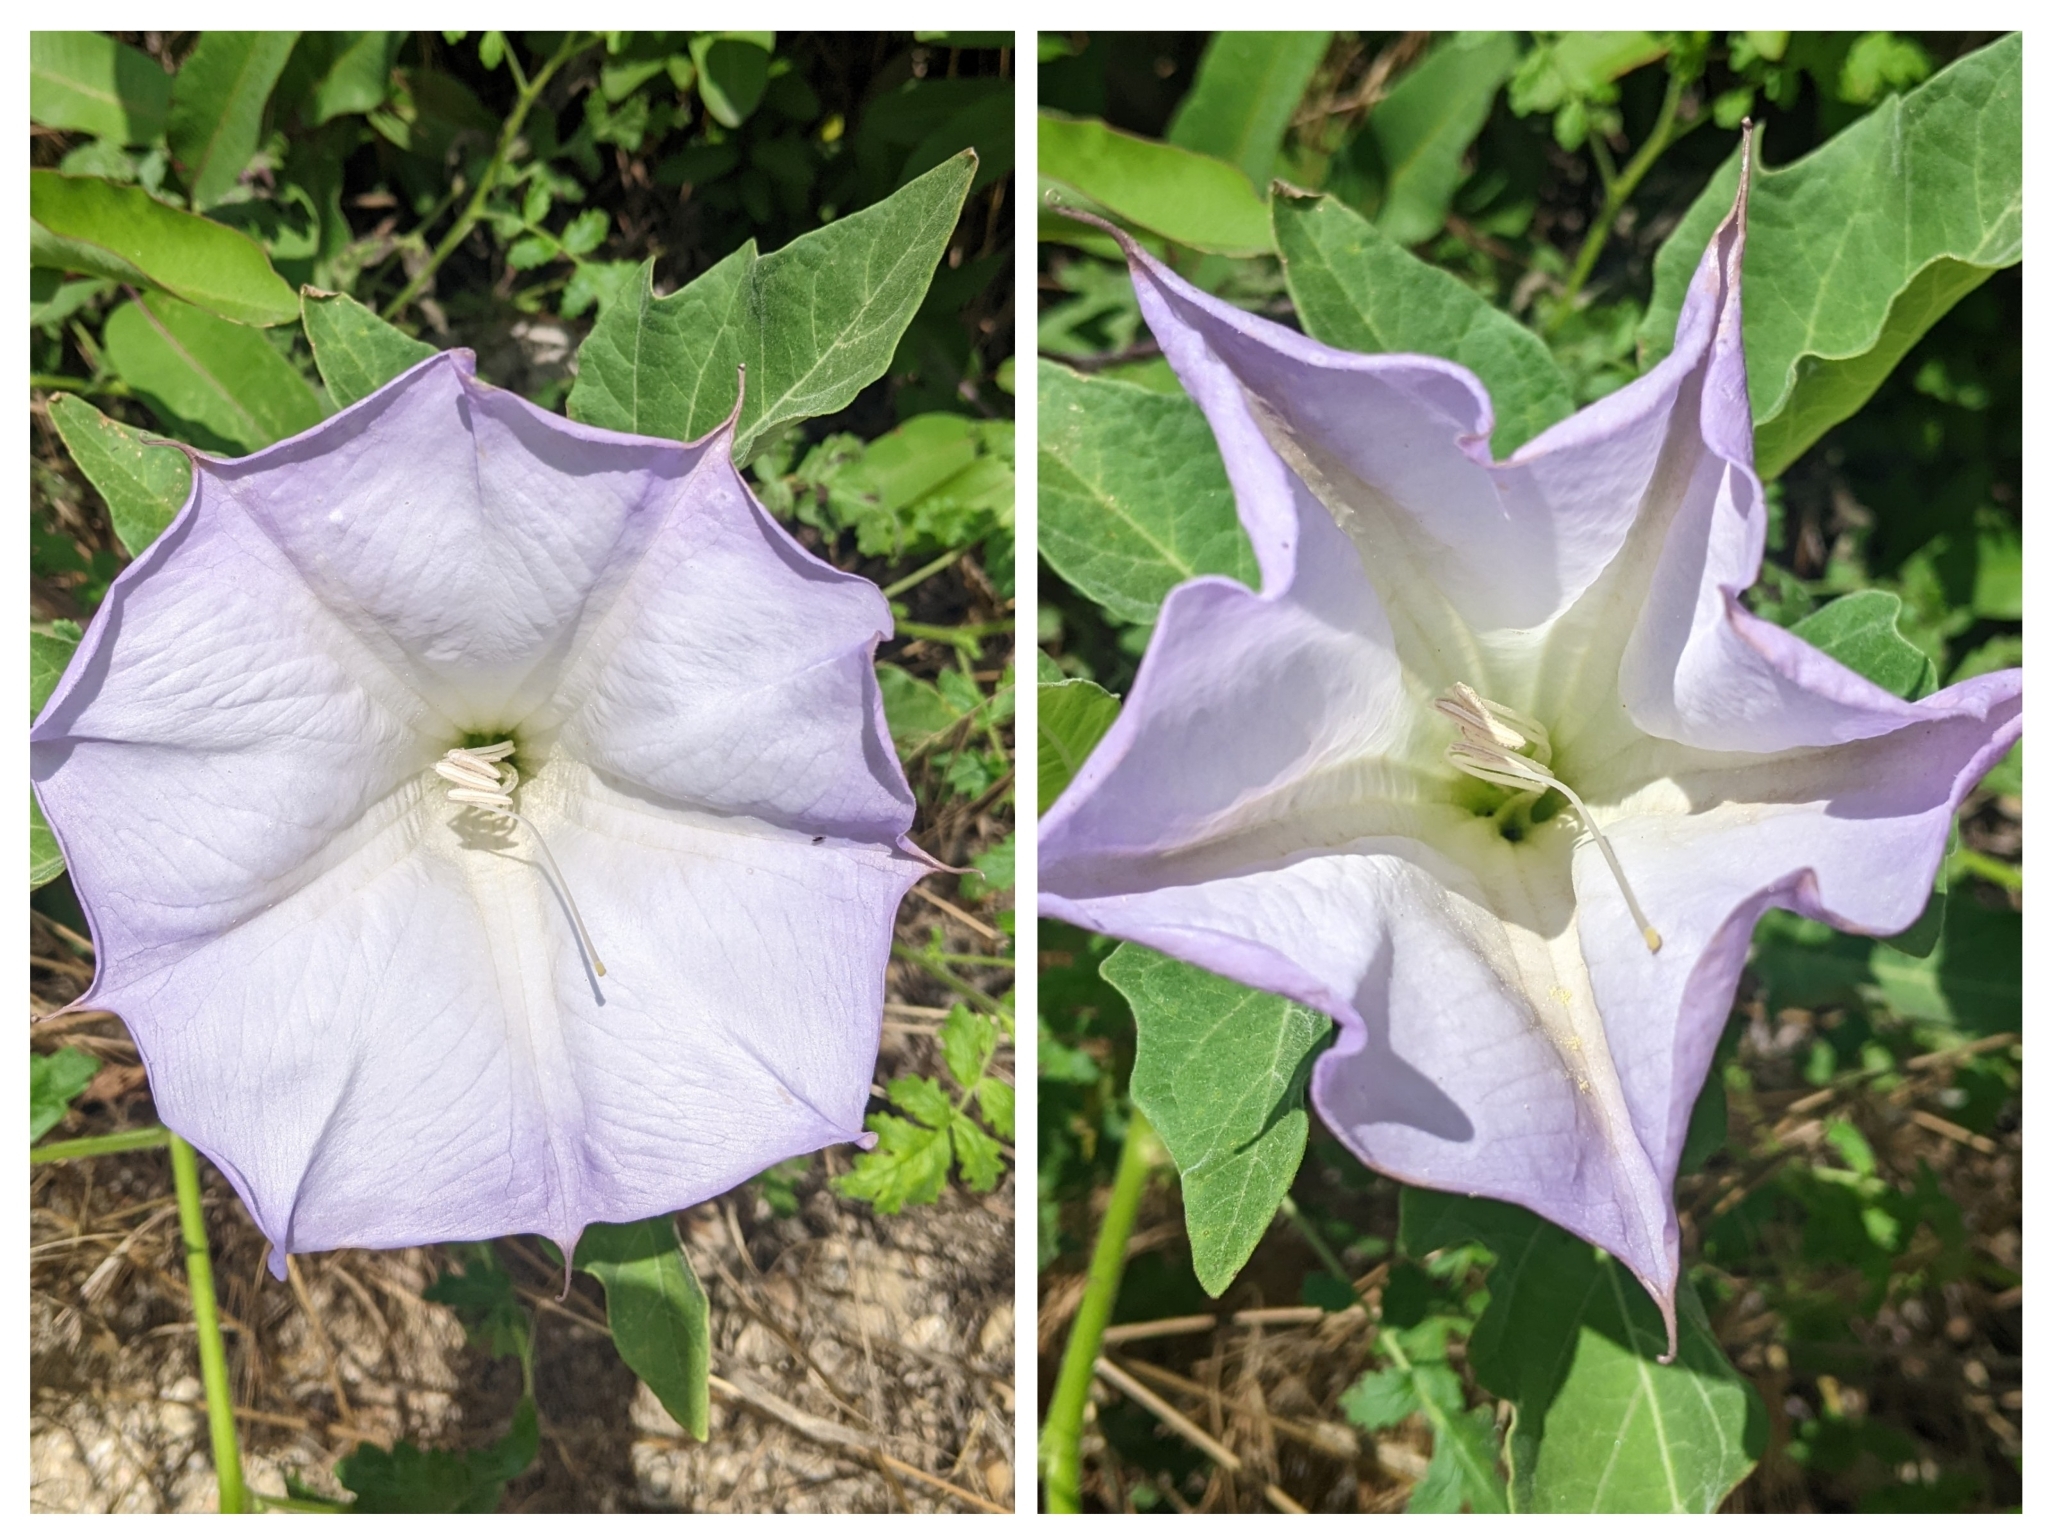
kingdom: Plantae
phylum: Tracheophyta
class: Magnoliopsida
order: Solanales
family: Solanaceae
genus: Datura
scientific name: Datura wrightii
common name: Sacred thorn-apple
